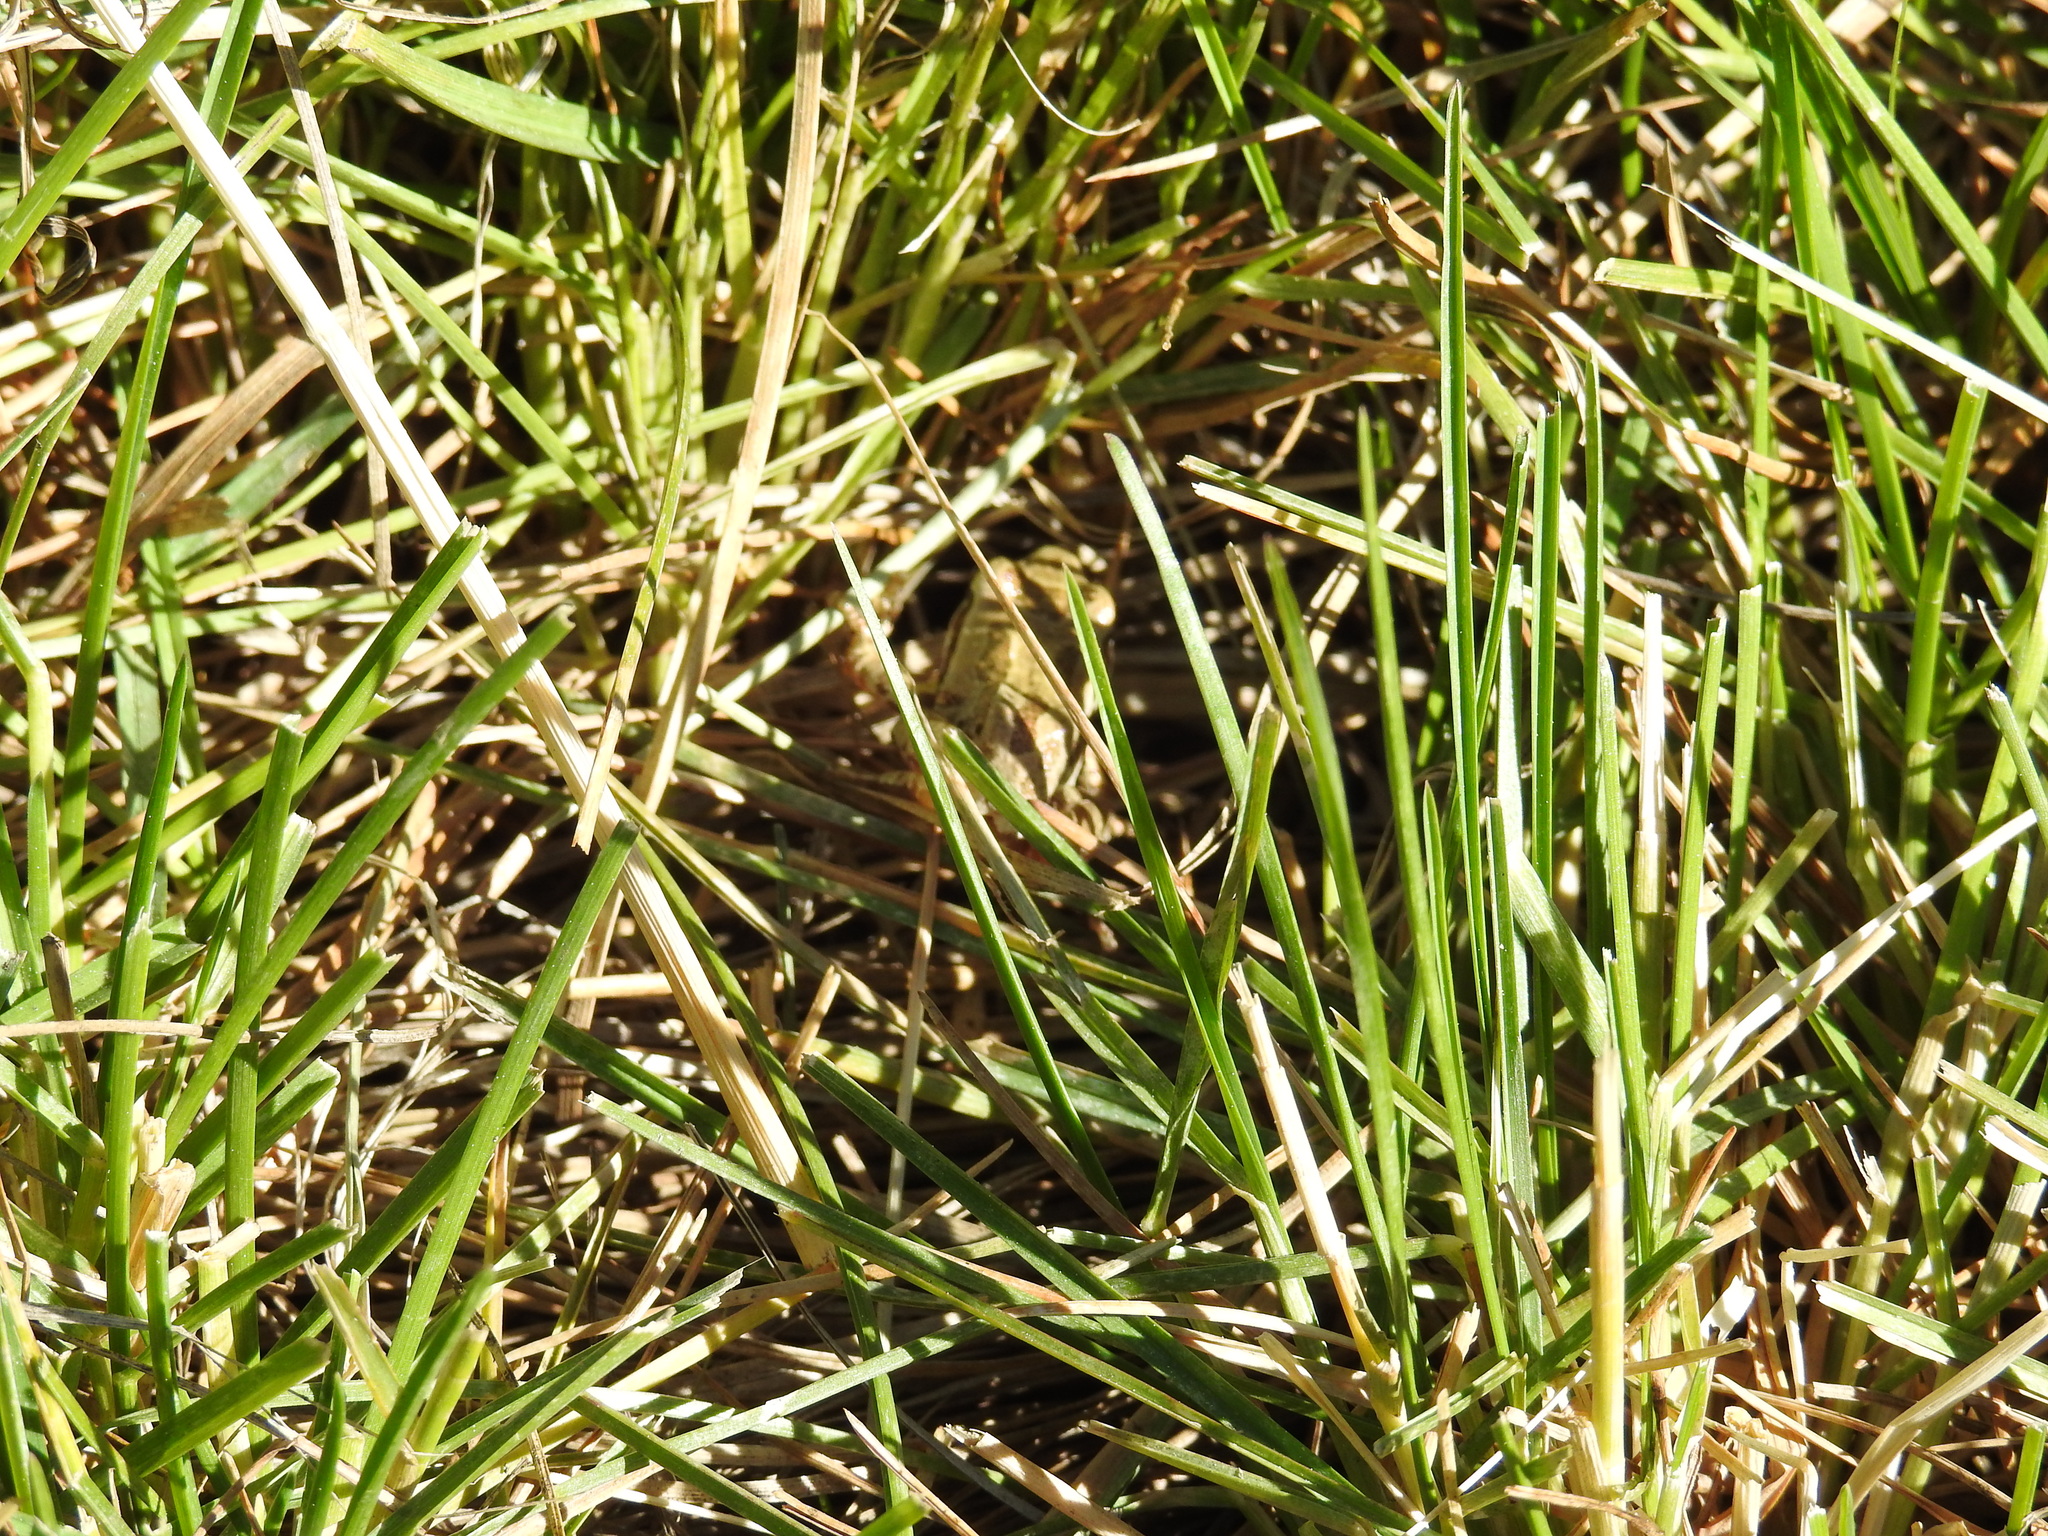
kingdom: Animalia
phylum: Chordata
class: Amphibia
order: Anura
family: Hylidae
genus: Pseudacris
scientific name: Pseudacris regilla
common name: Pacific chorus frog
